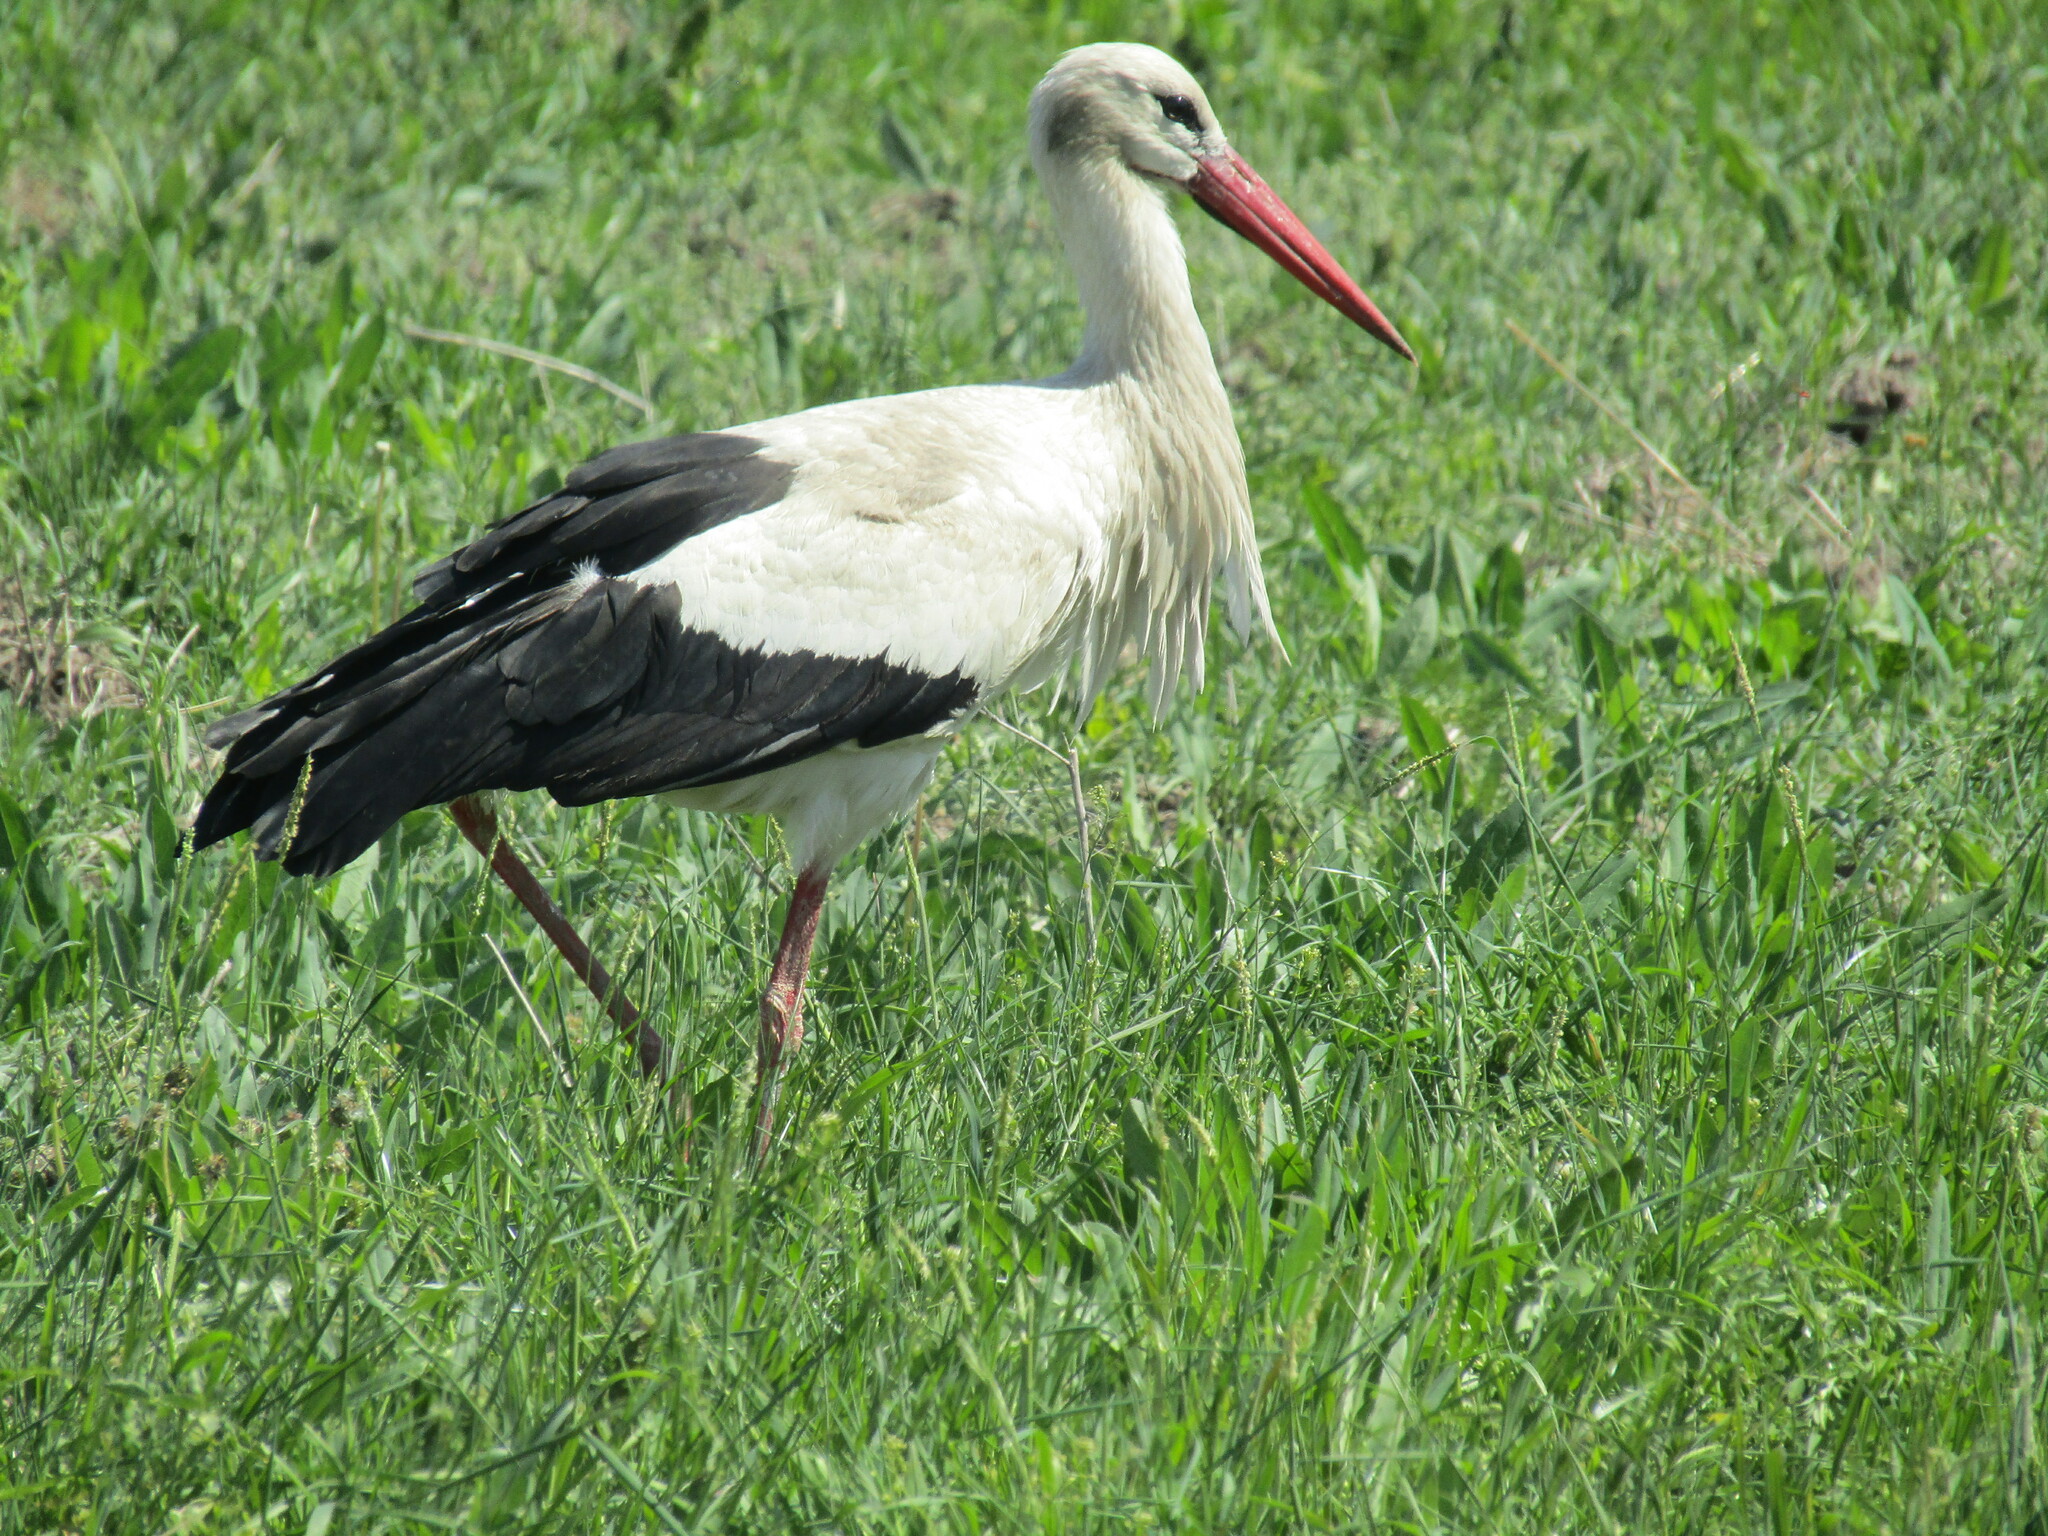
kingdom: Animalia
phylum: Chordata
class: Aves
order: Ciconiiformes
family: Ciconiidae
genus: Ciconia
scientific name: Ciconia ciconia
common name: White stork
